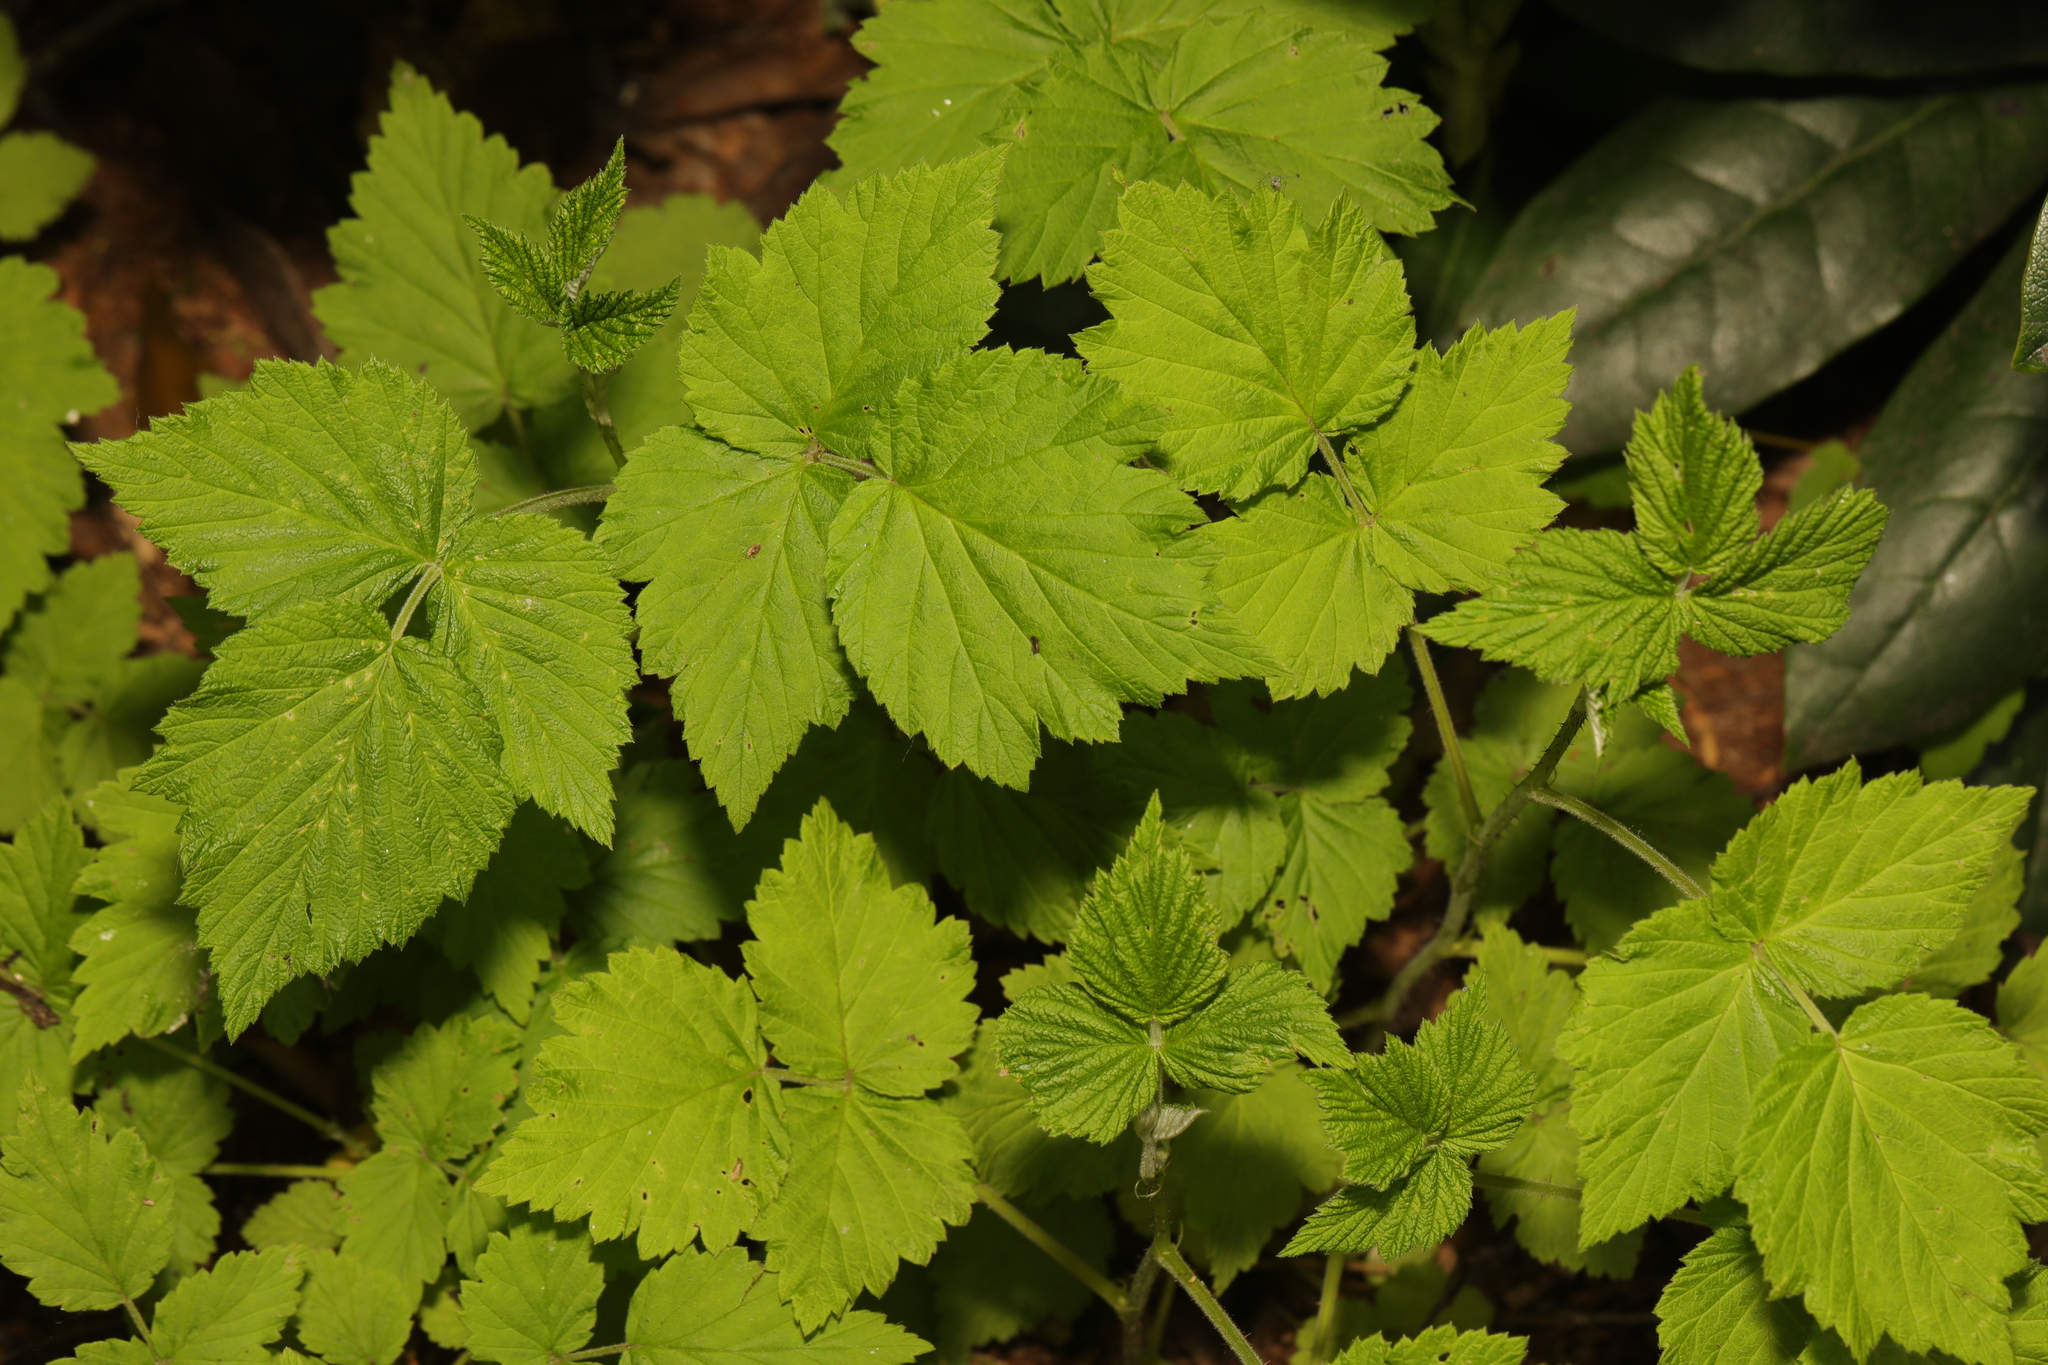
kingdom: Plantae
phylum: Tracheophyta
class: Magnoliopsida
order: Rosales
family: Rosaceae
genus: Rubus
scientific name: Rubus idaeus
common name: Raspberry
